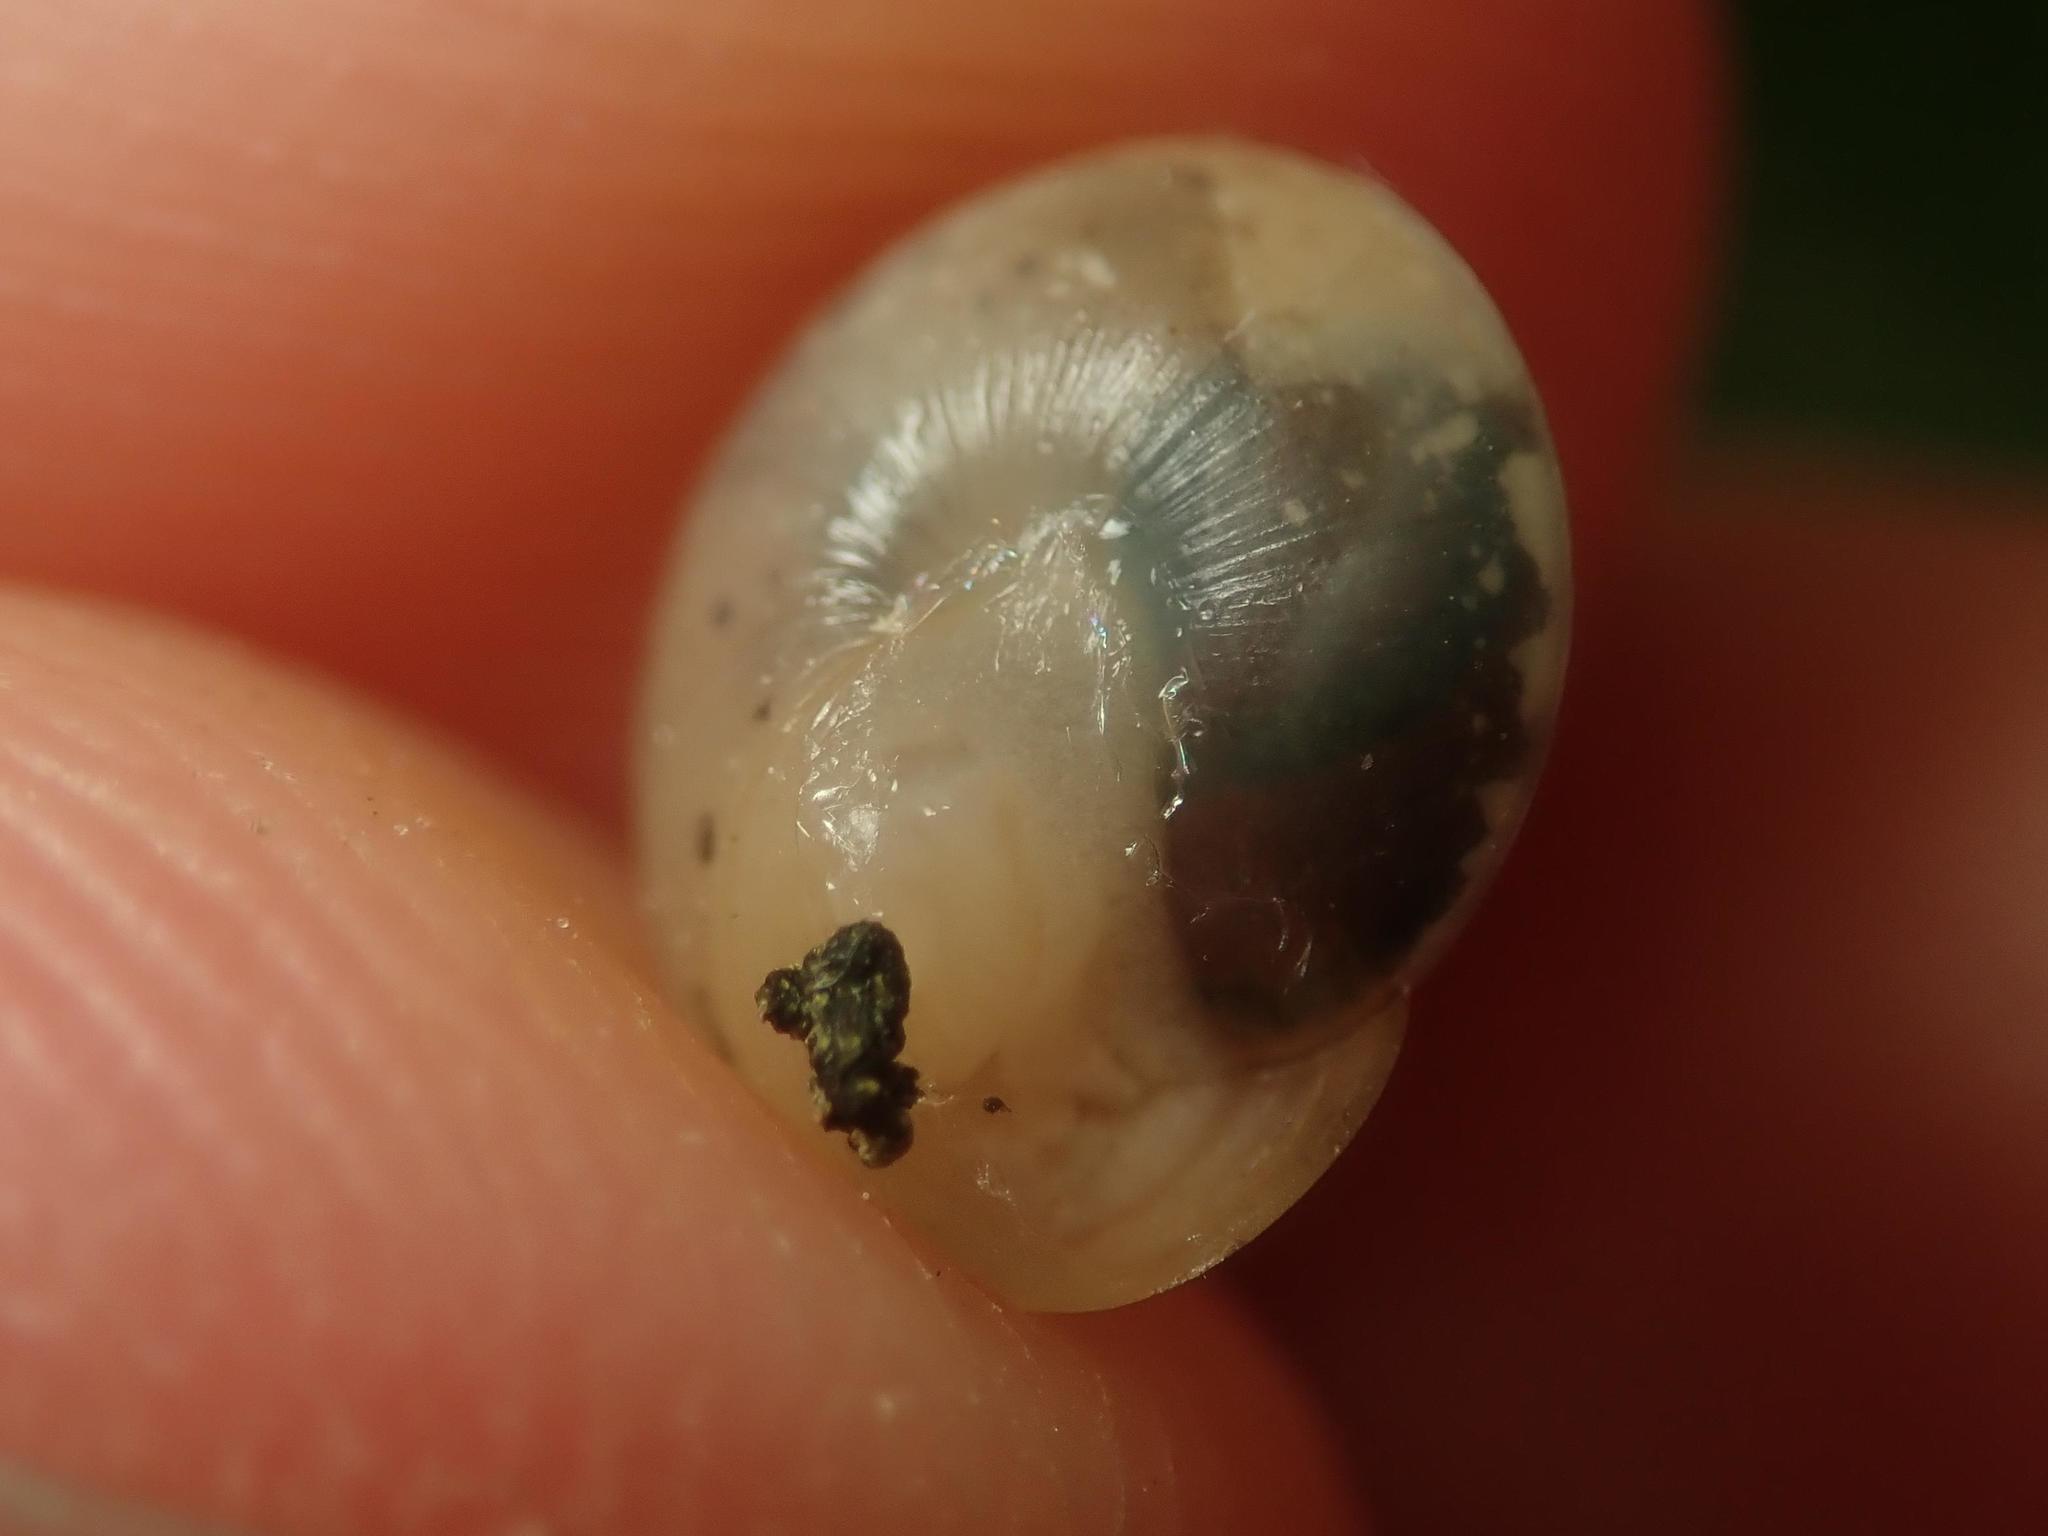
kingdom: Animalia
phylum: Mollusca
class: Gastropoda
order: Stylommatophora
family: Hygromiidae
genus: Hygromia
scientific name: Hygromia cinctella
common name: Girdled snail
